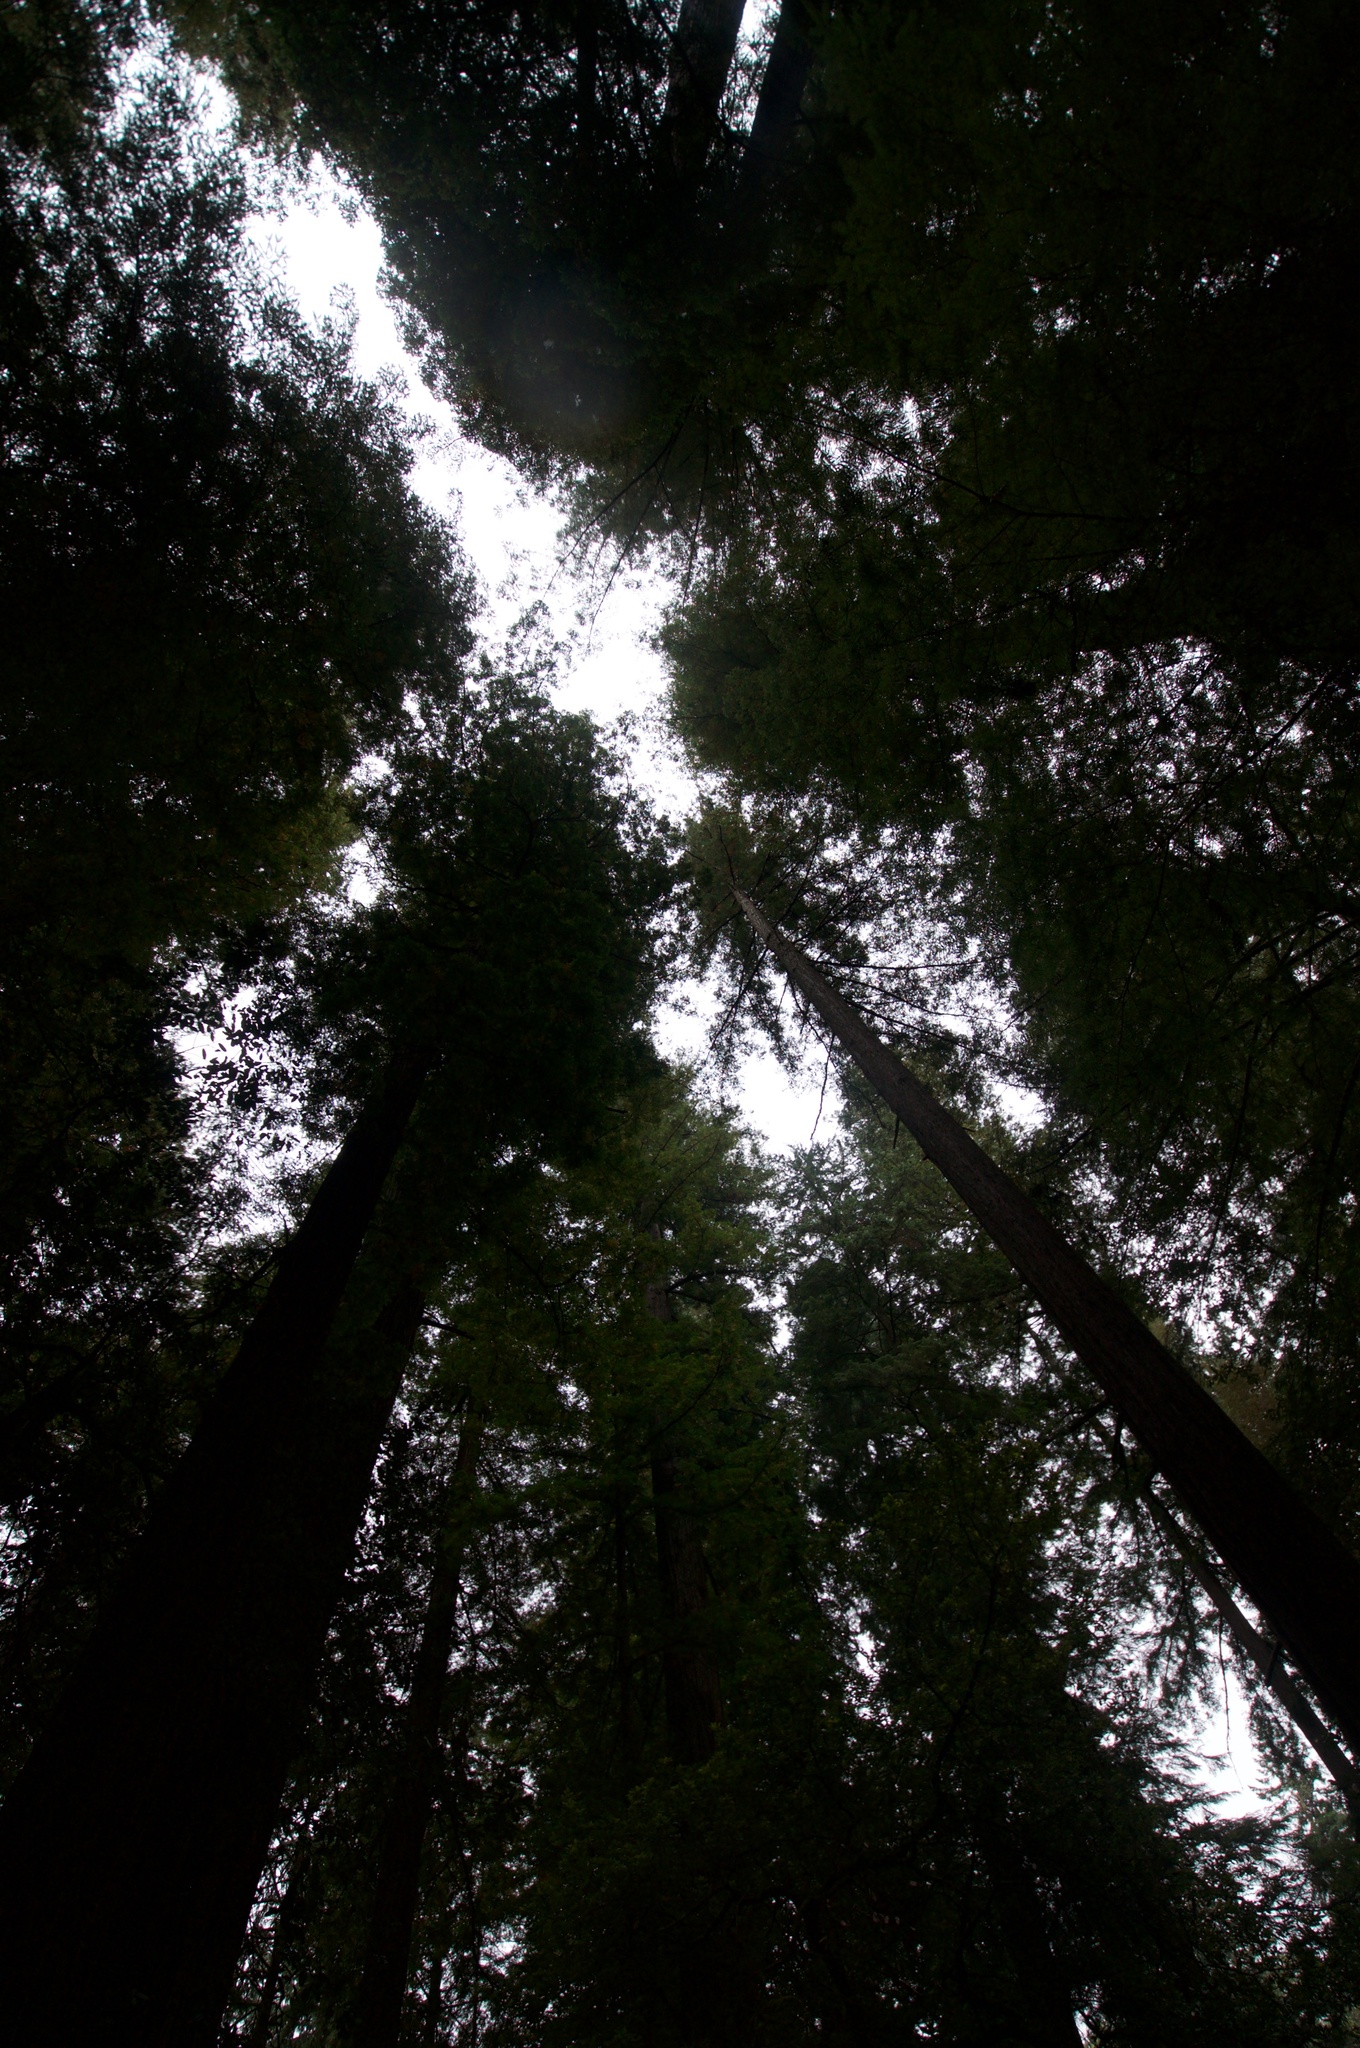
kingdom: Plantae
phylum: Tracheophyta
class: Pinopsida
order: Pinales
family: Cupressaceae
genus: Sequoia
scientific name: Sequoia sempervirens
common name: Coast redwood
